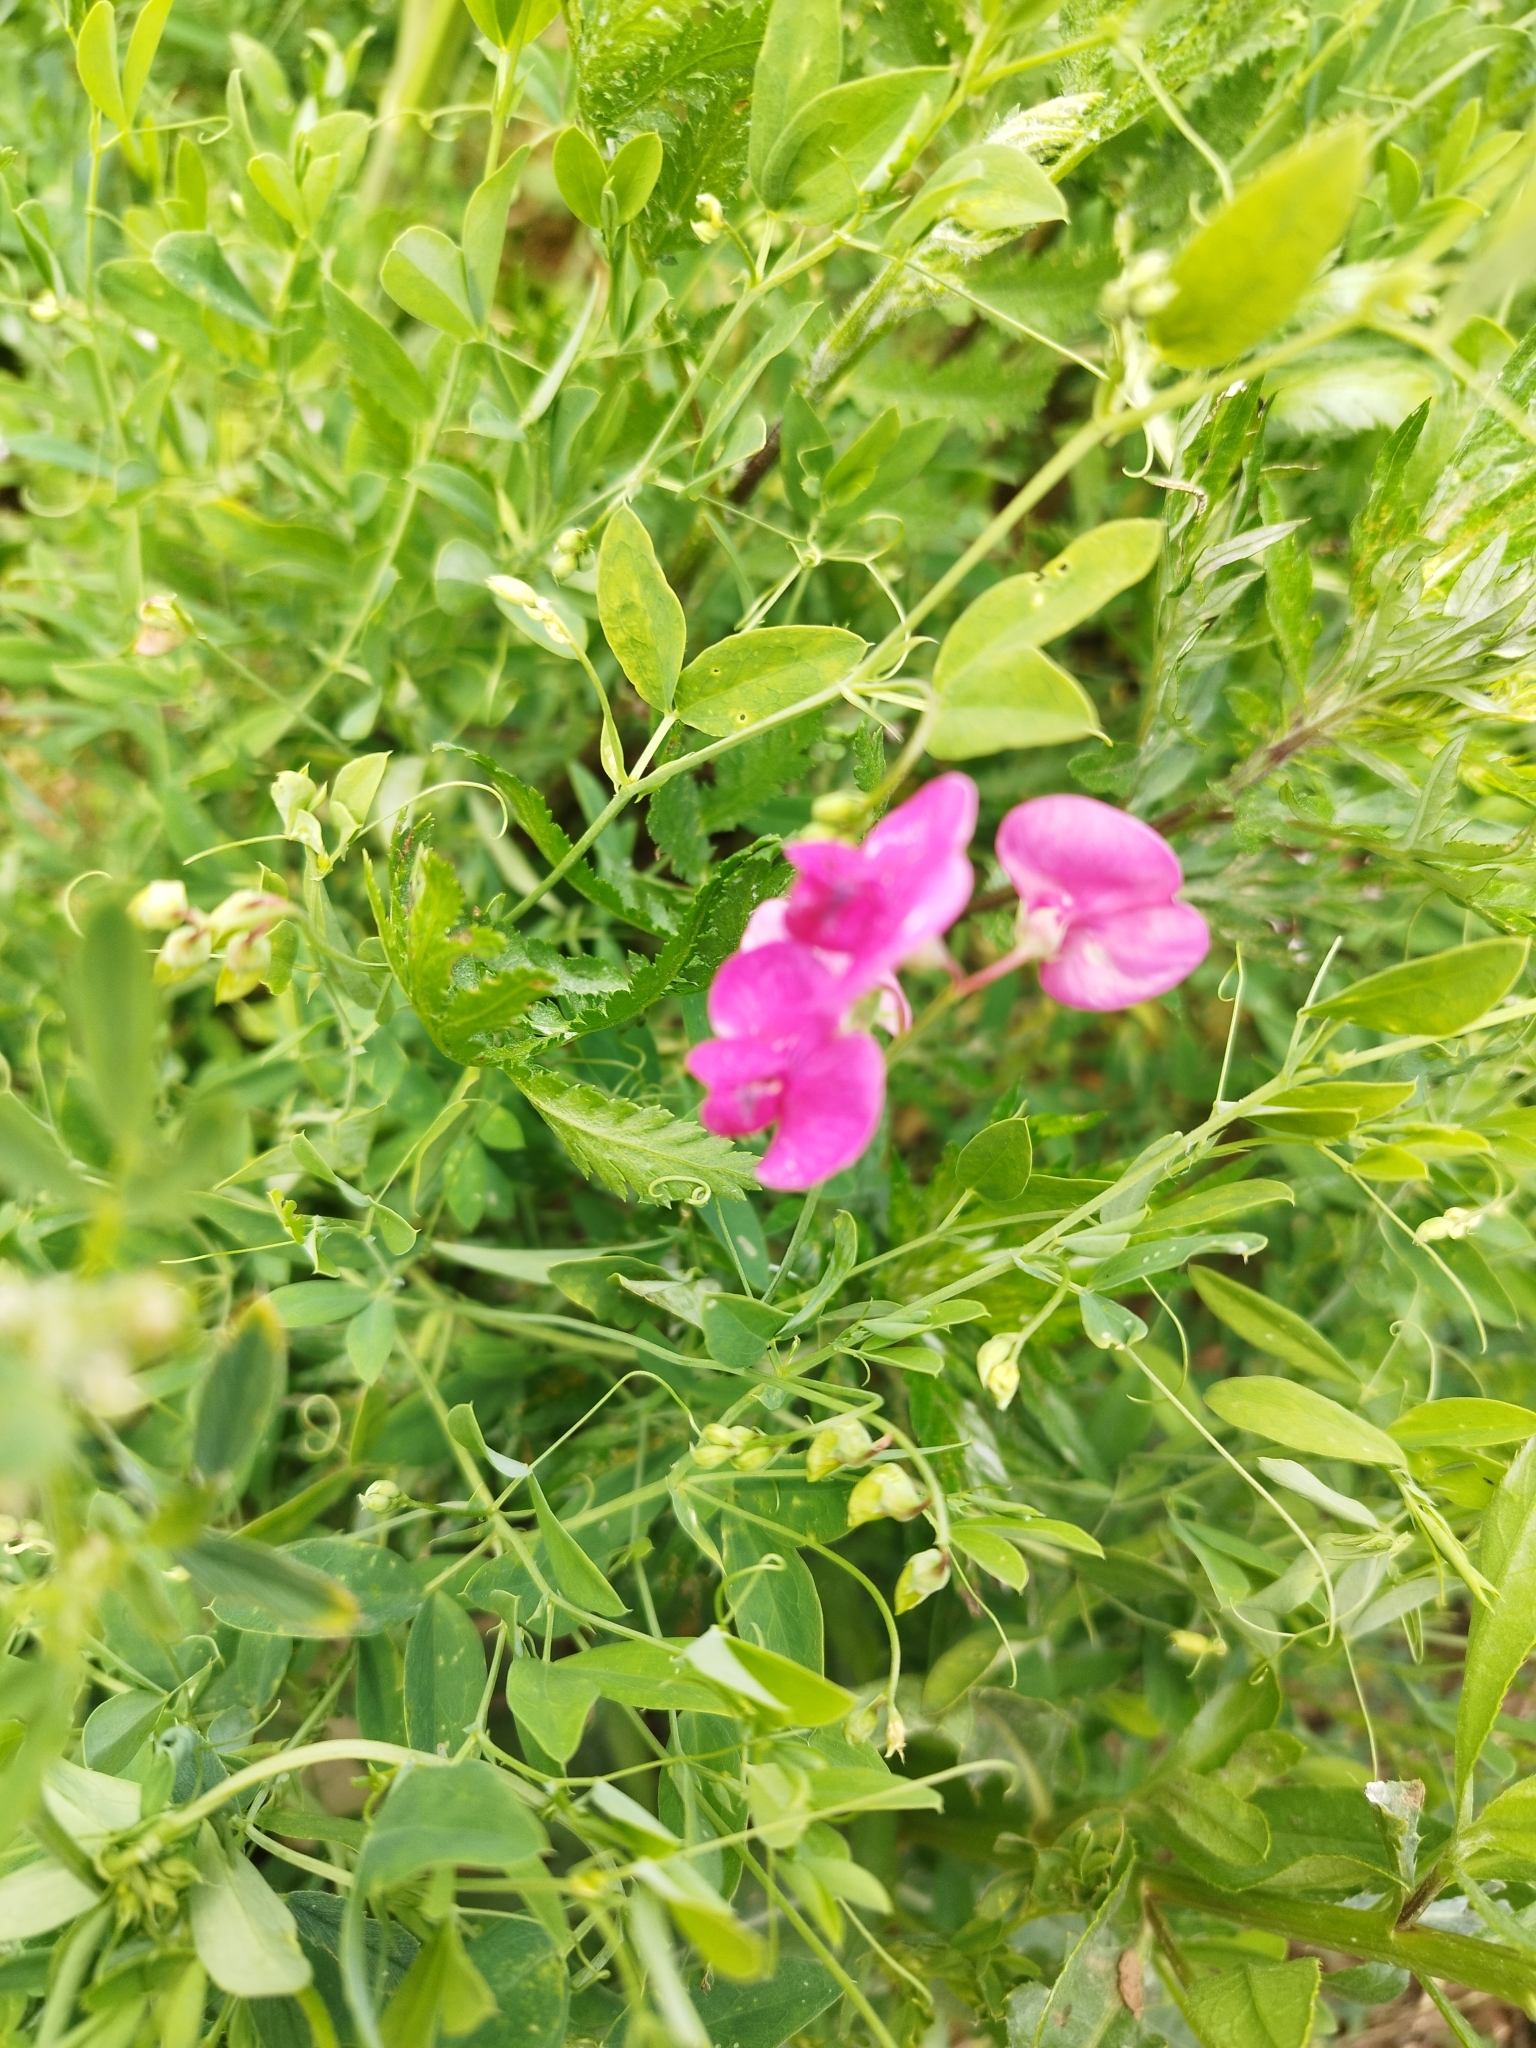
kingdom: Plantae
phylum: Tracheophyta
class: Magnoliopsida
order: Fabales
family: Fabaceae
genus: Lathyrus
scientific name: Lathyrus tuberosus
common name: Tuberous pea
